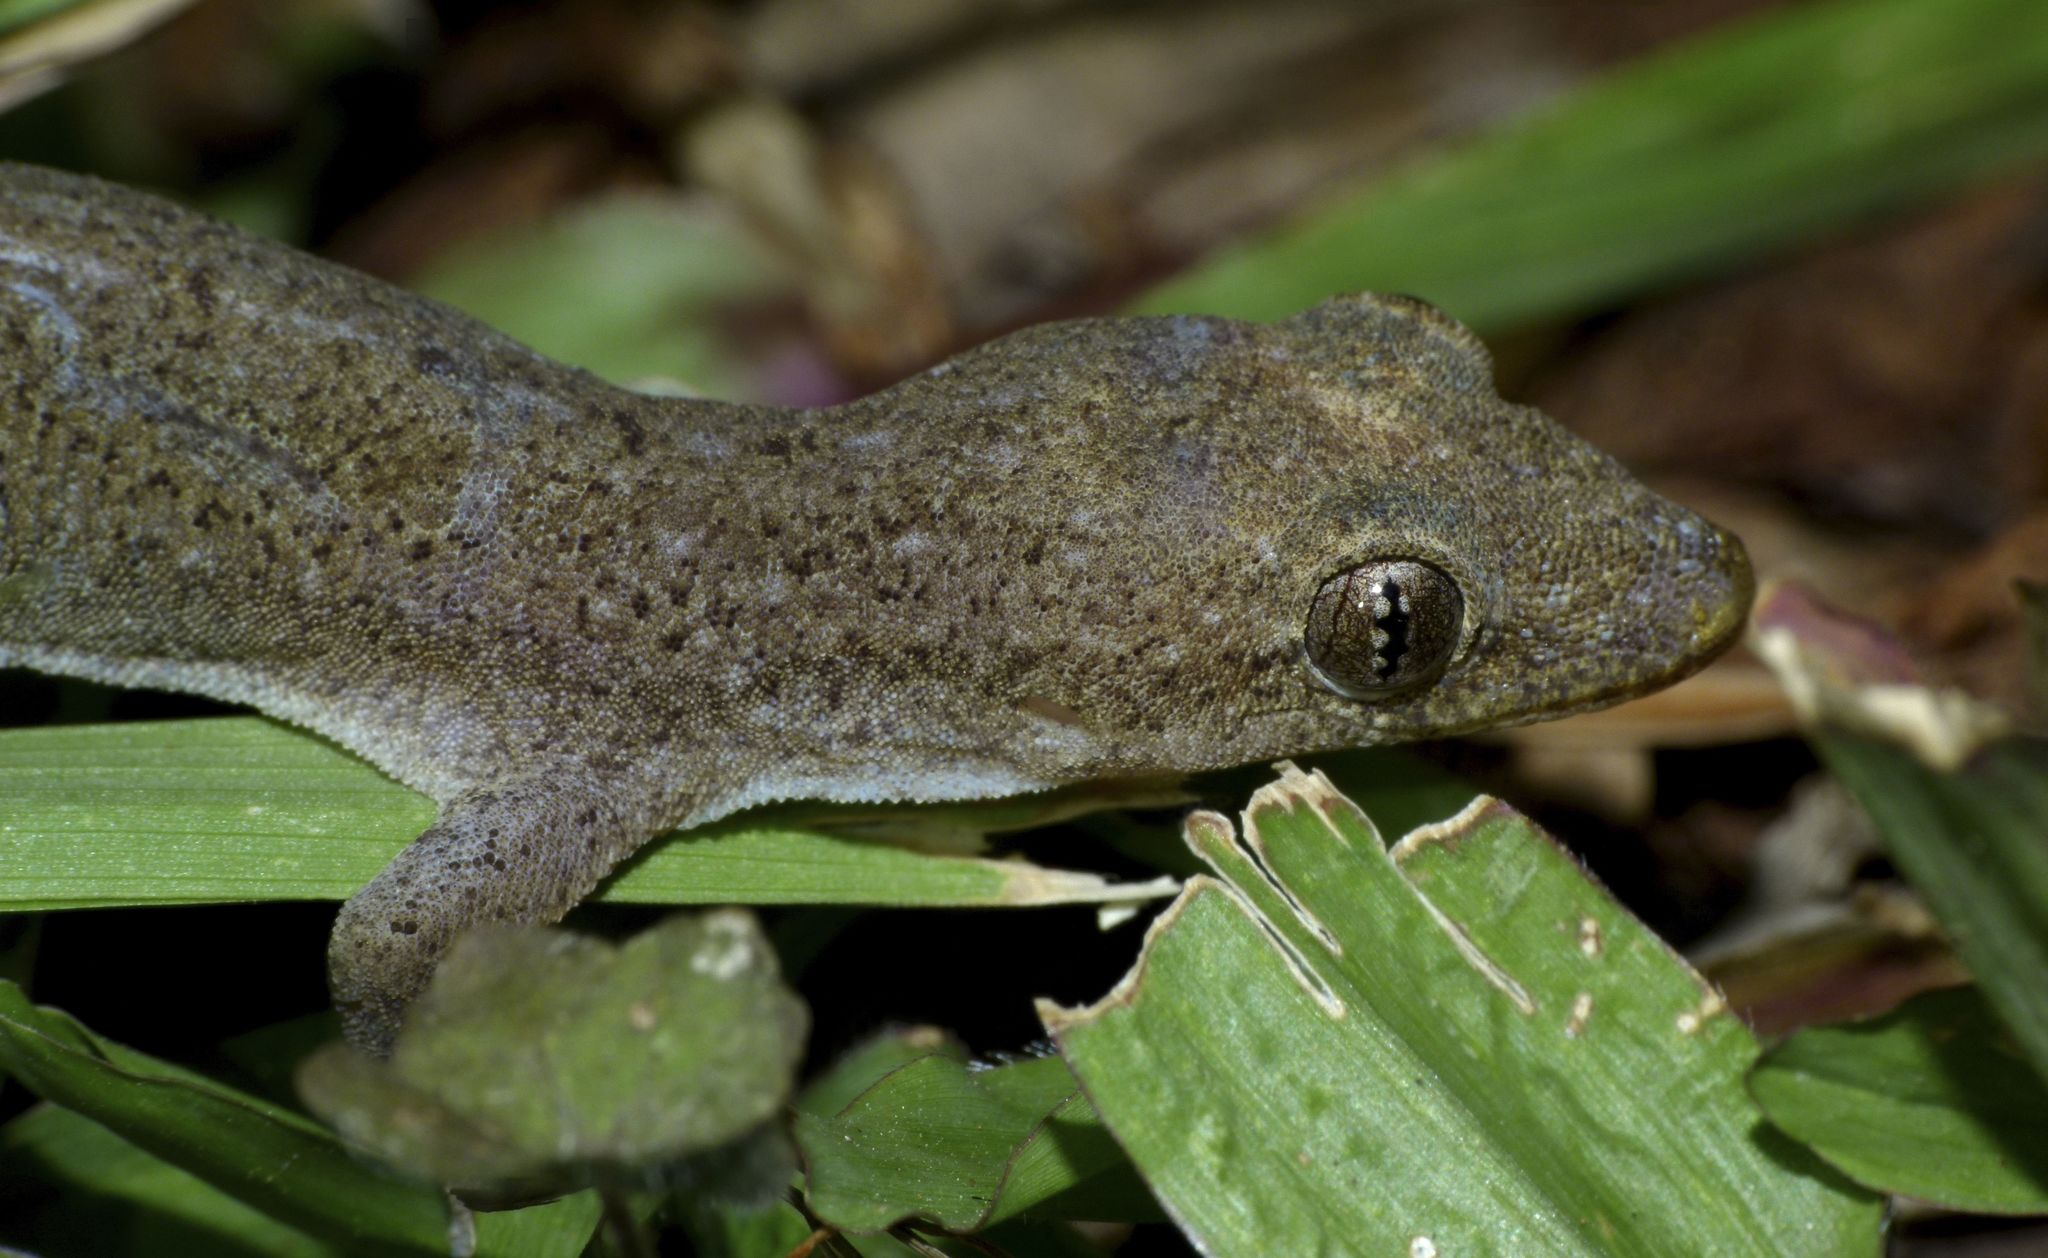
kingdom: Animalia
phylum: Chordata
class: Squamata
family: Gekkonidae
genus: Hemidactylus
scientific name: Hemidactylus frenatus
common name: Common house gecko
